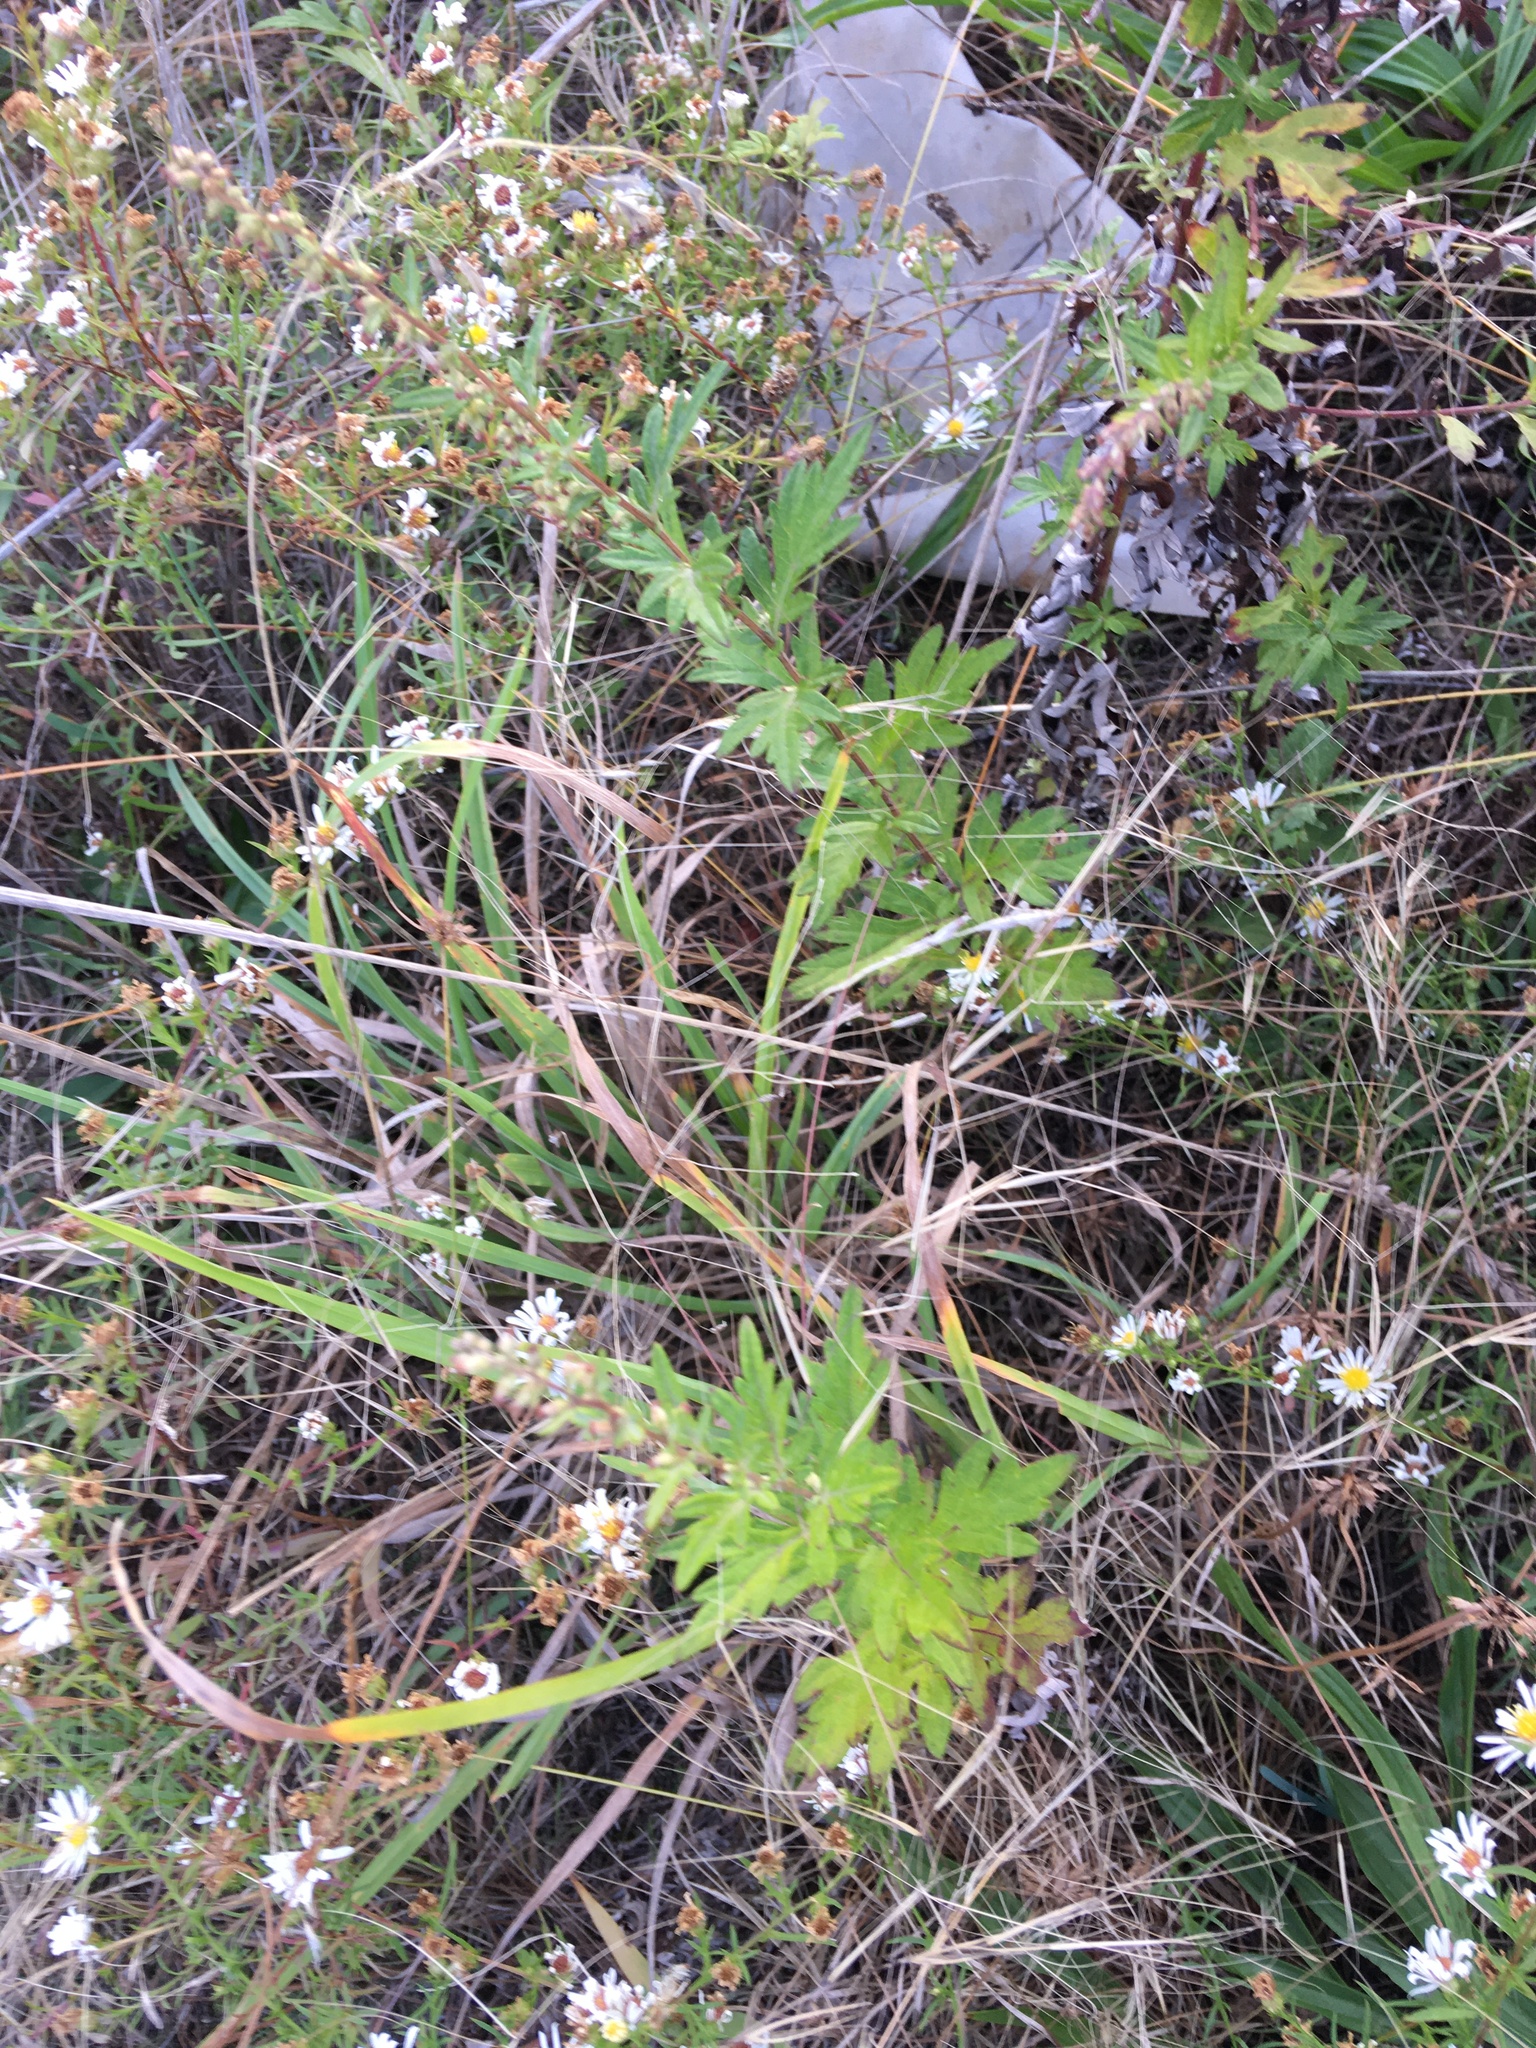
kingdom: Plantae
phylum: Tracheophyta
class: Magnoliopsida
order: Asterales
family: Asteraceae
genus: Artemisia
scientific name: Artemisia vulgaris
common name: Mugwort
